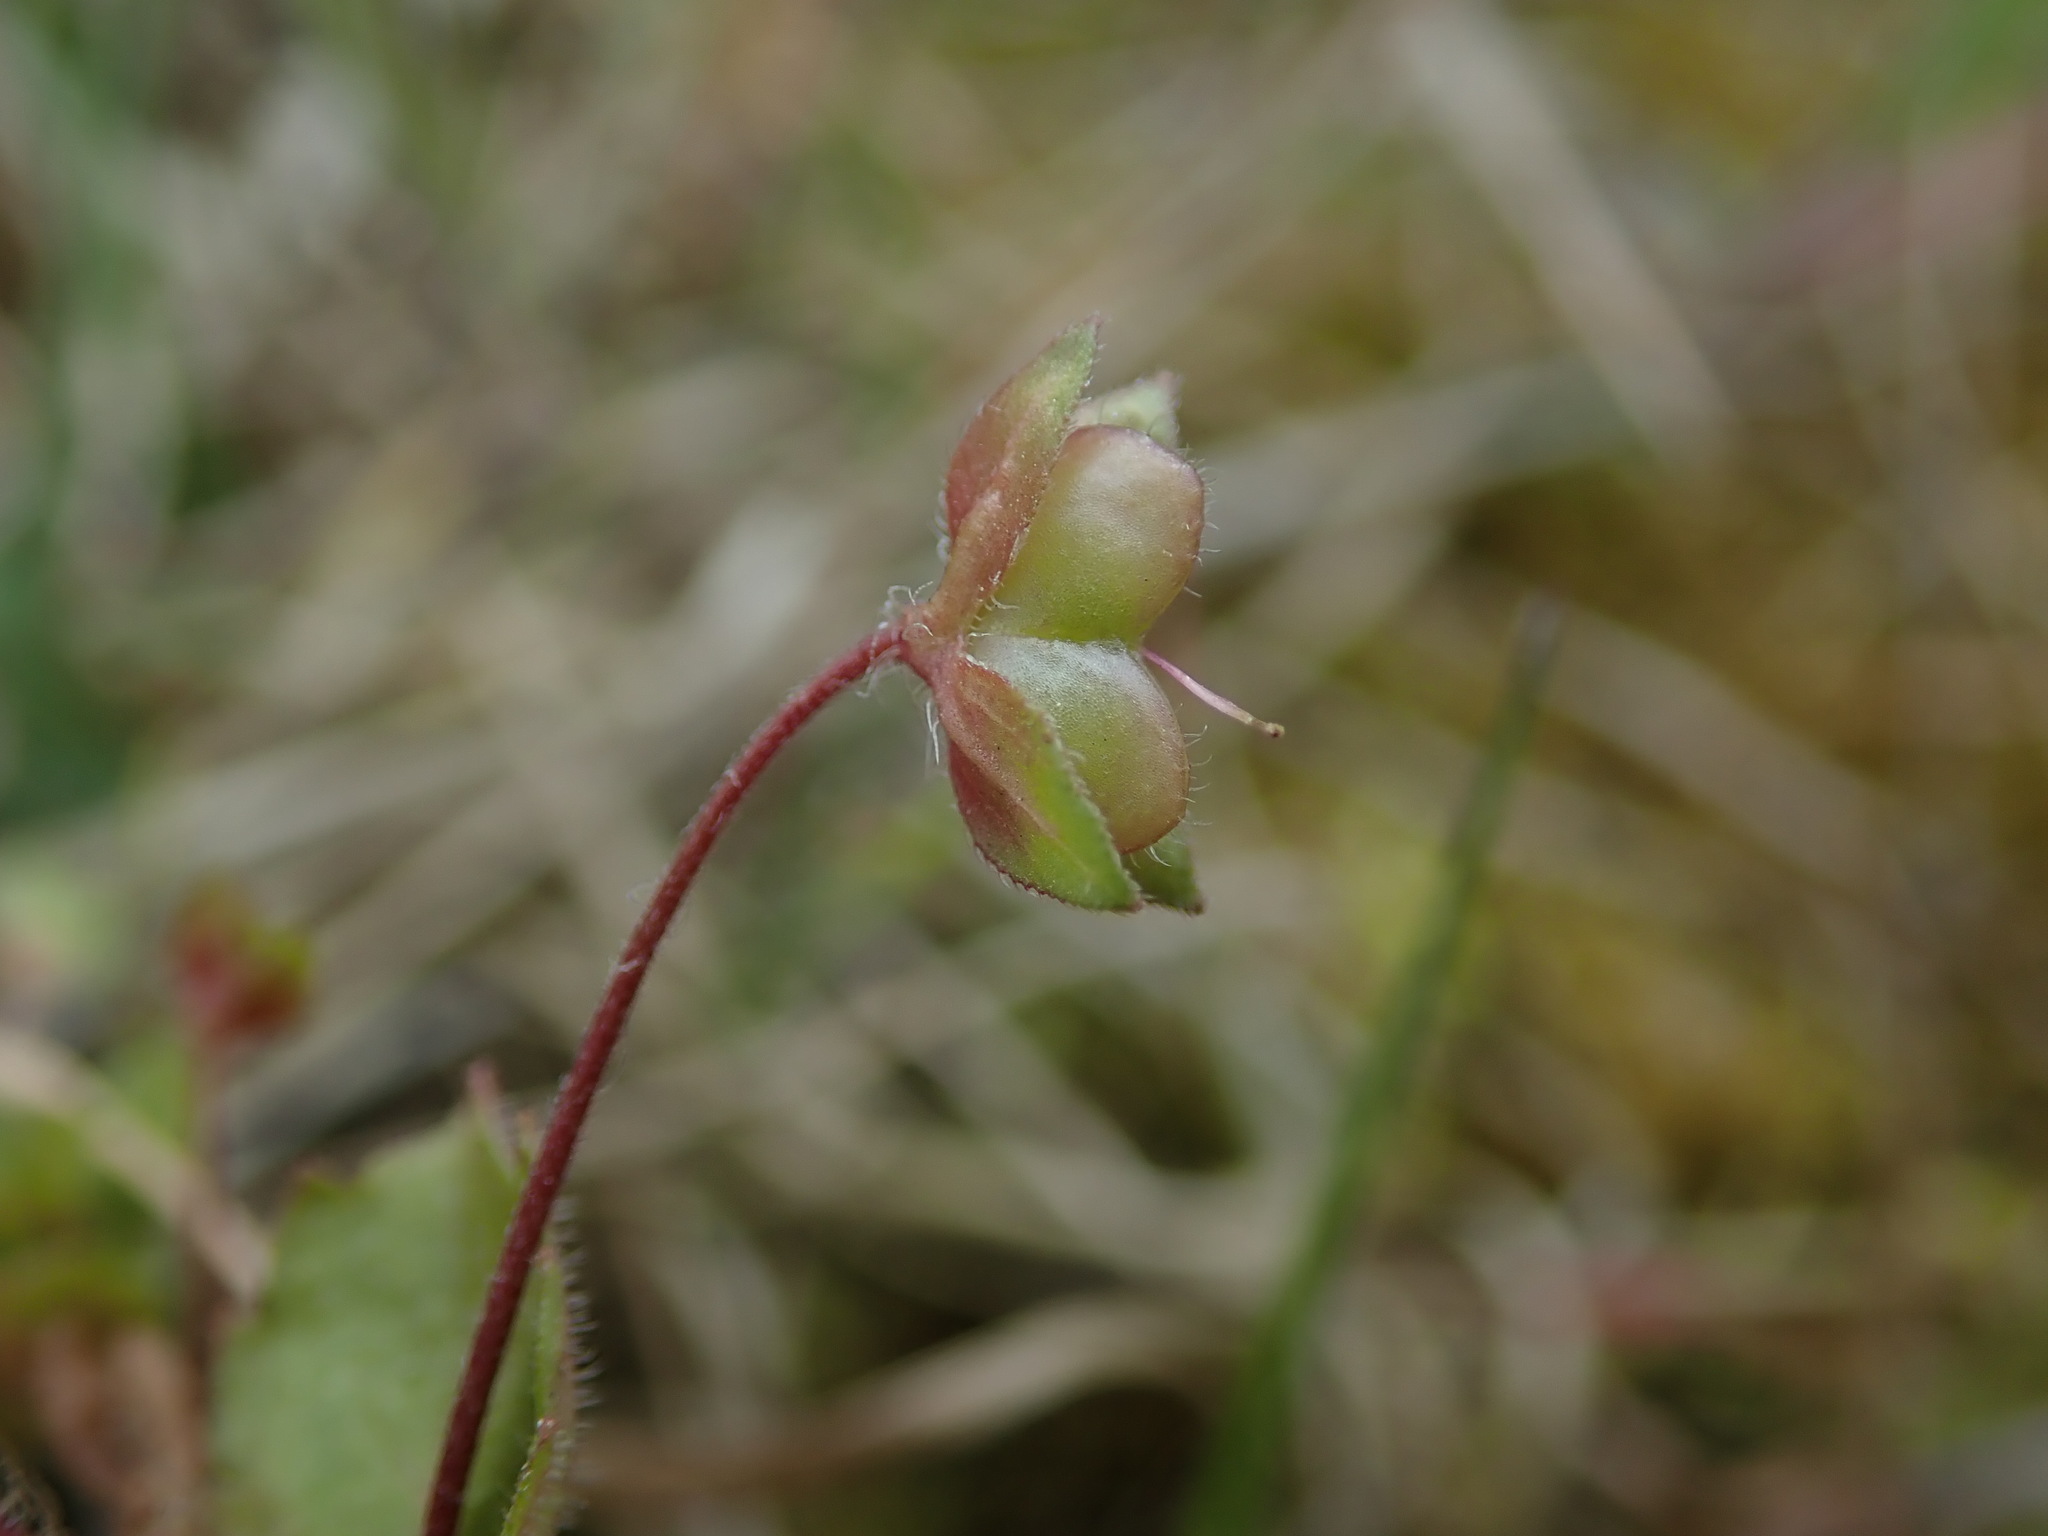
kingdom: Plantae
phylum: Tracheophyta
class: Magnoliopsida
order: Lamiales
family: Plantaginaceae
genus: Veronica
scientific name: Veronica persica
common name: Common field-speedwell
